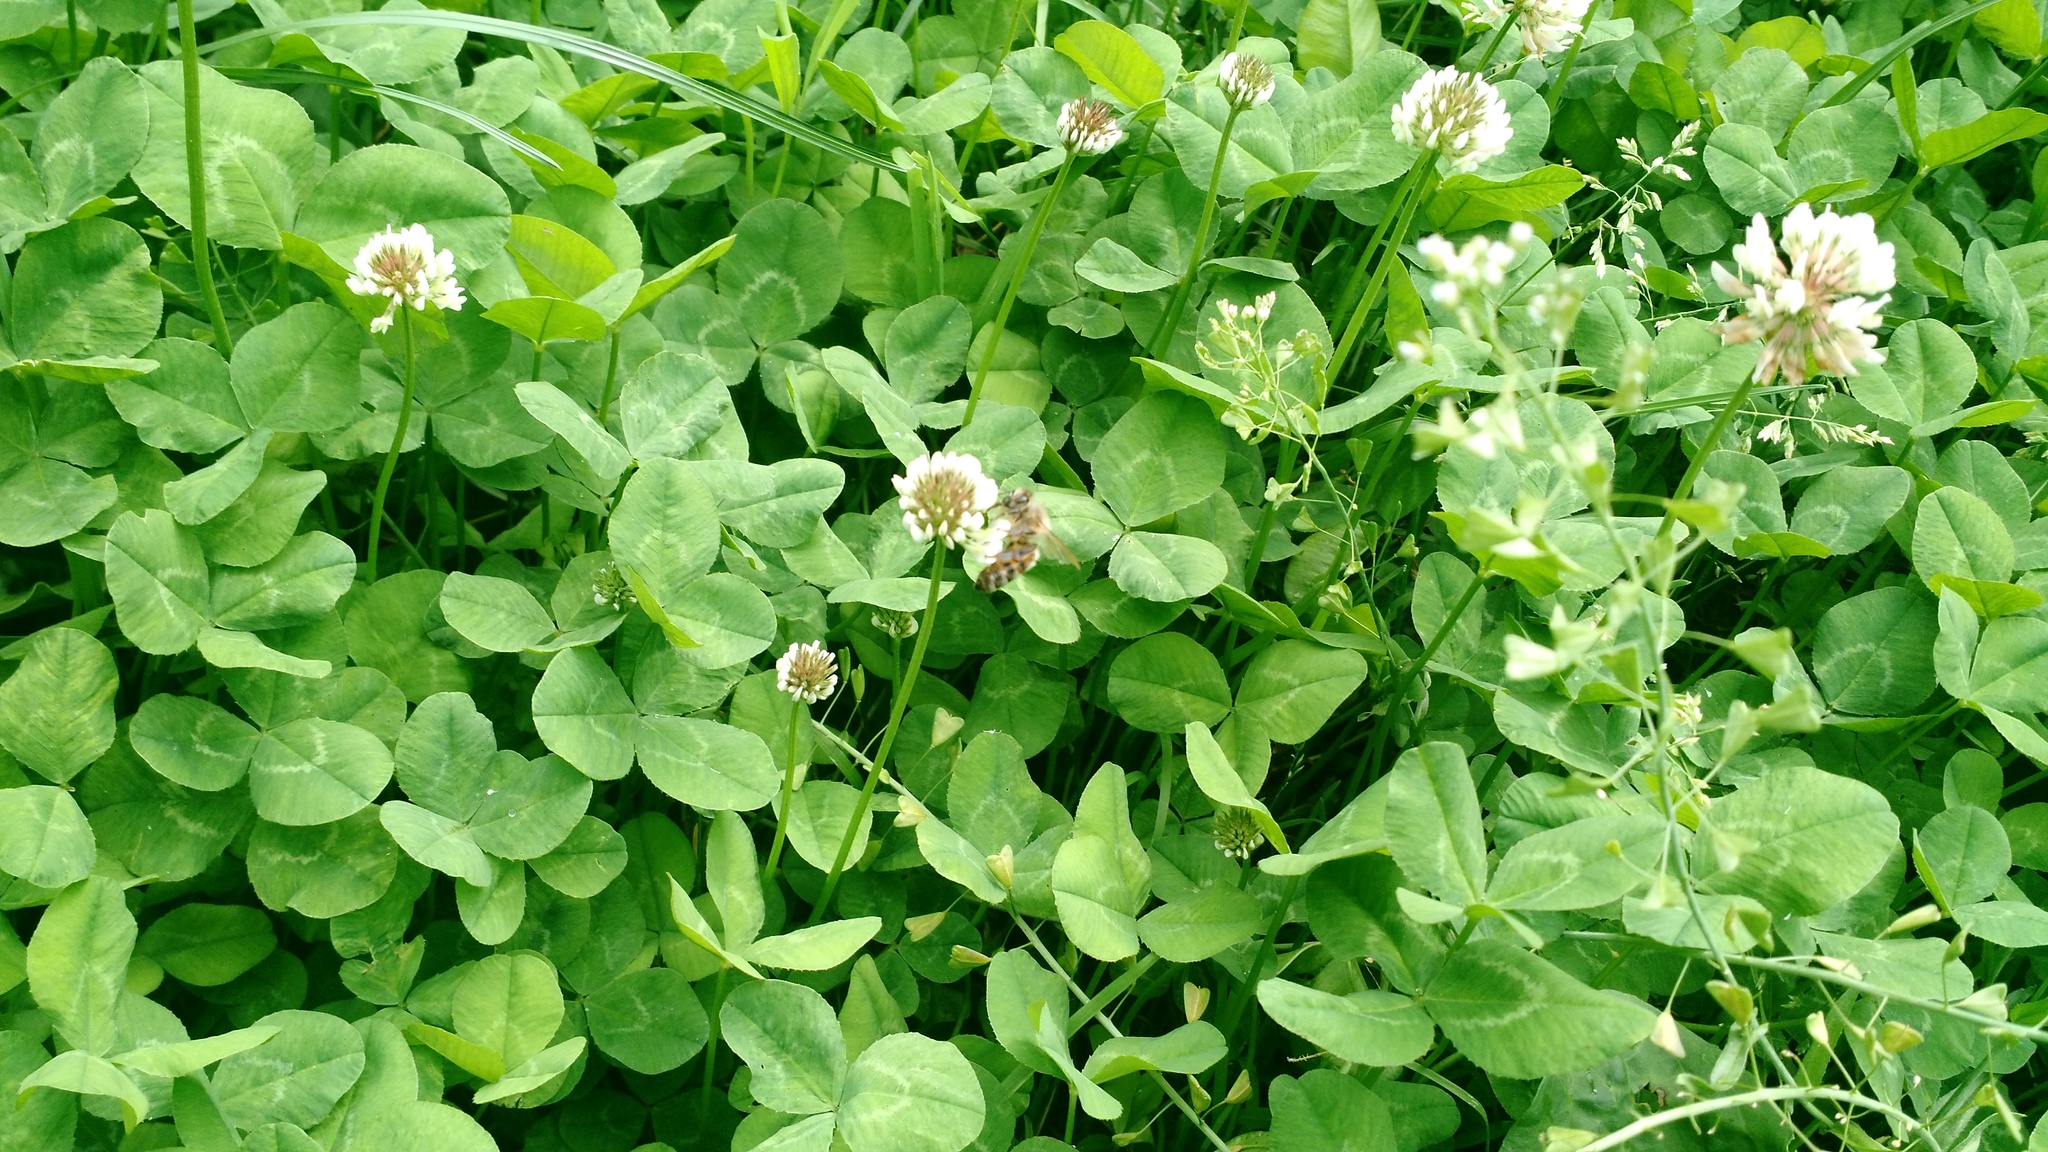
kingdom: Animalia
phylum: Arthropoda
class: Insecta
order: Hymenoptera
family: Apidae
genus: Apis
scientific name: Apis mellifera
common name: Honey bee
